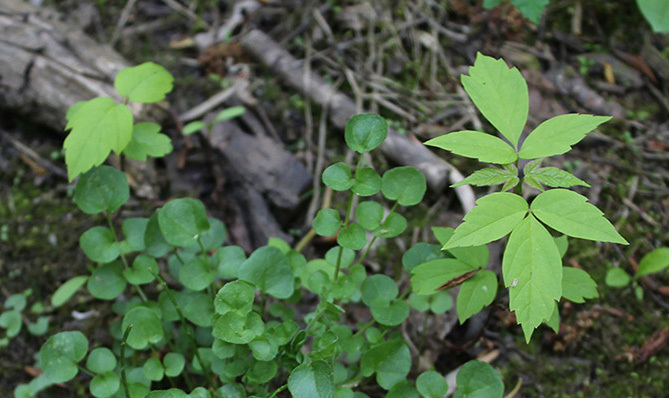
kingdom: Plantae
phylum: Tracheophyta
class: Magnoliopsida
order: Sapindales
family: Sapindaceae
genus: Acer
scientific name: Acer negundo
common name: Ashleaf maple
